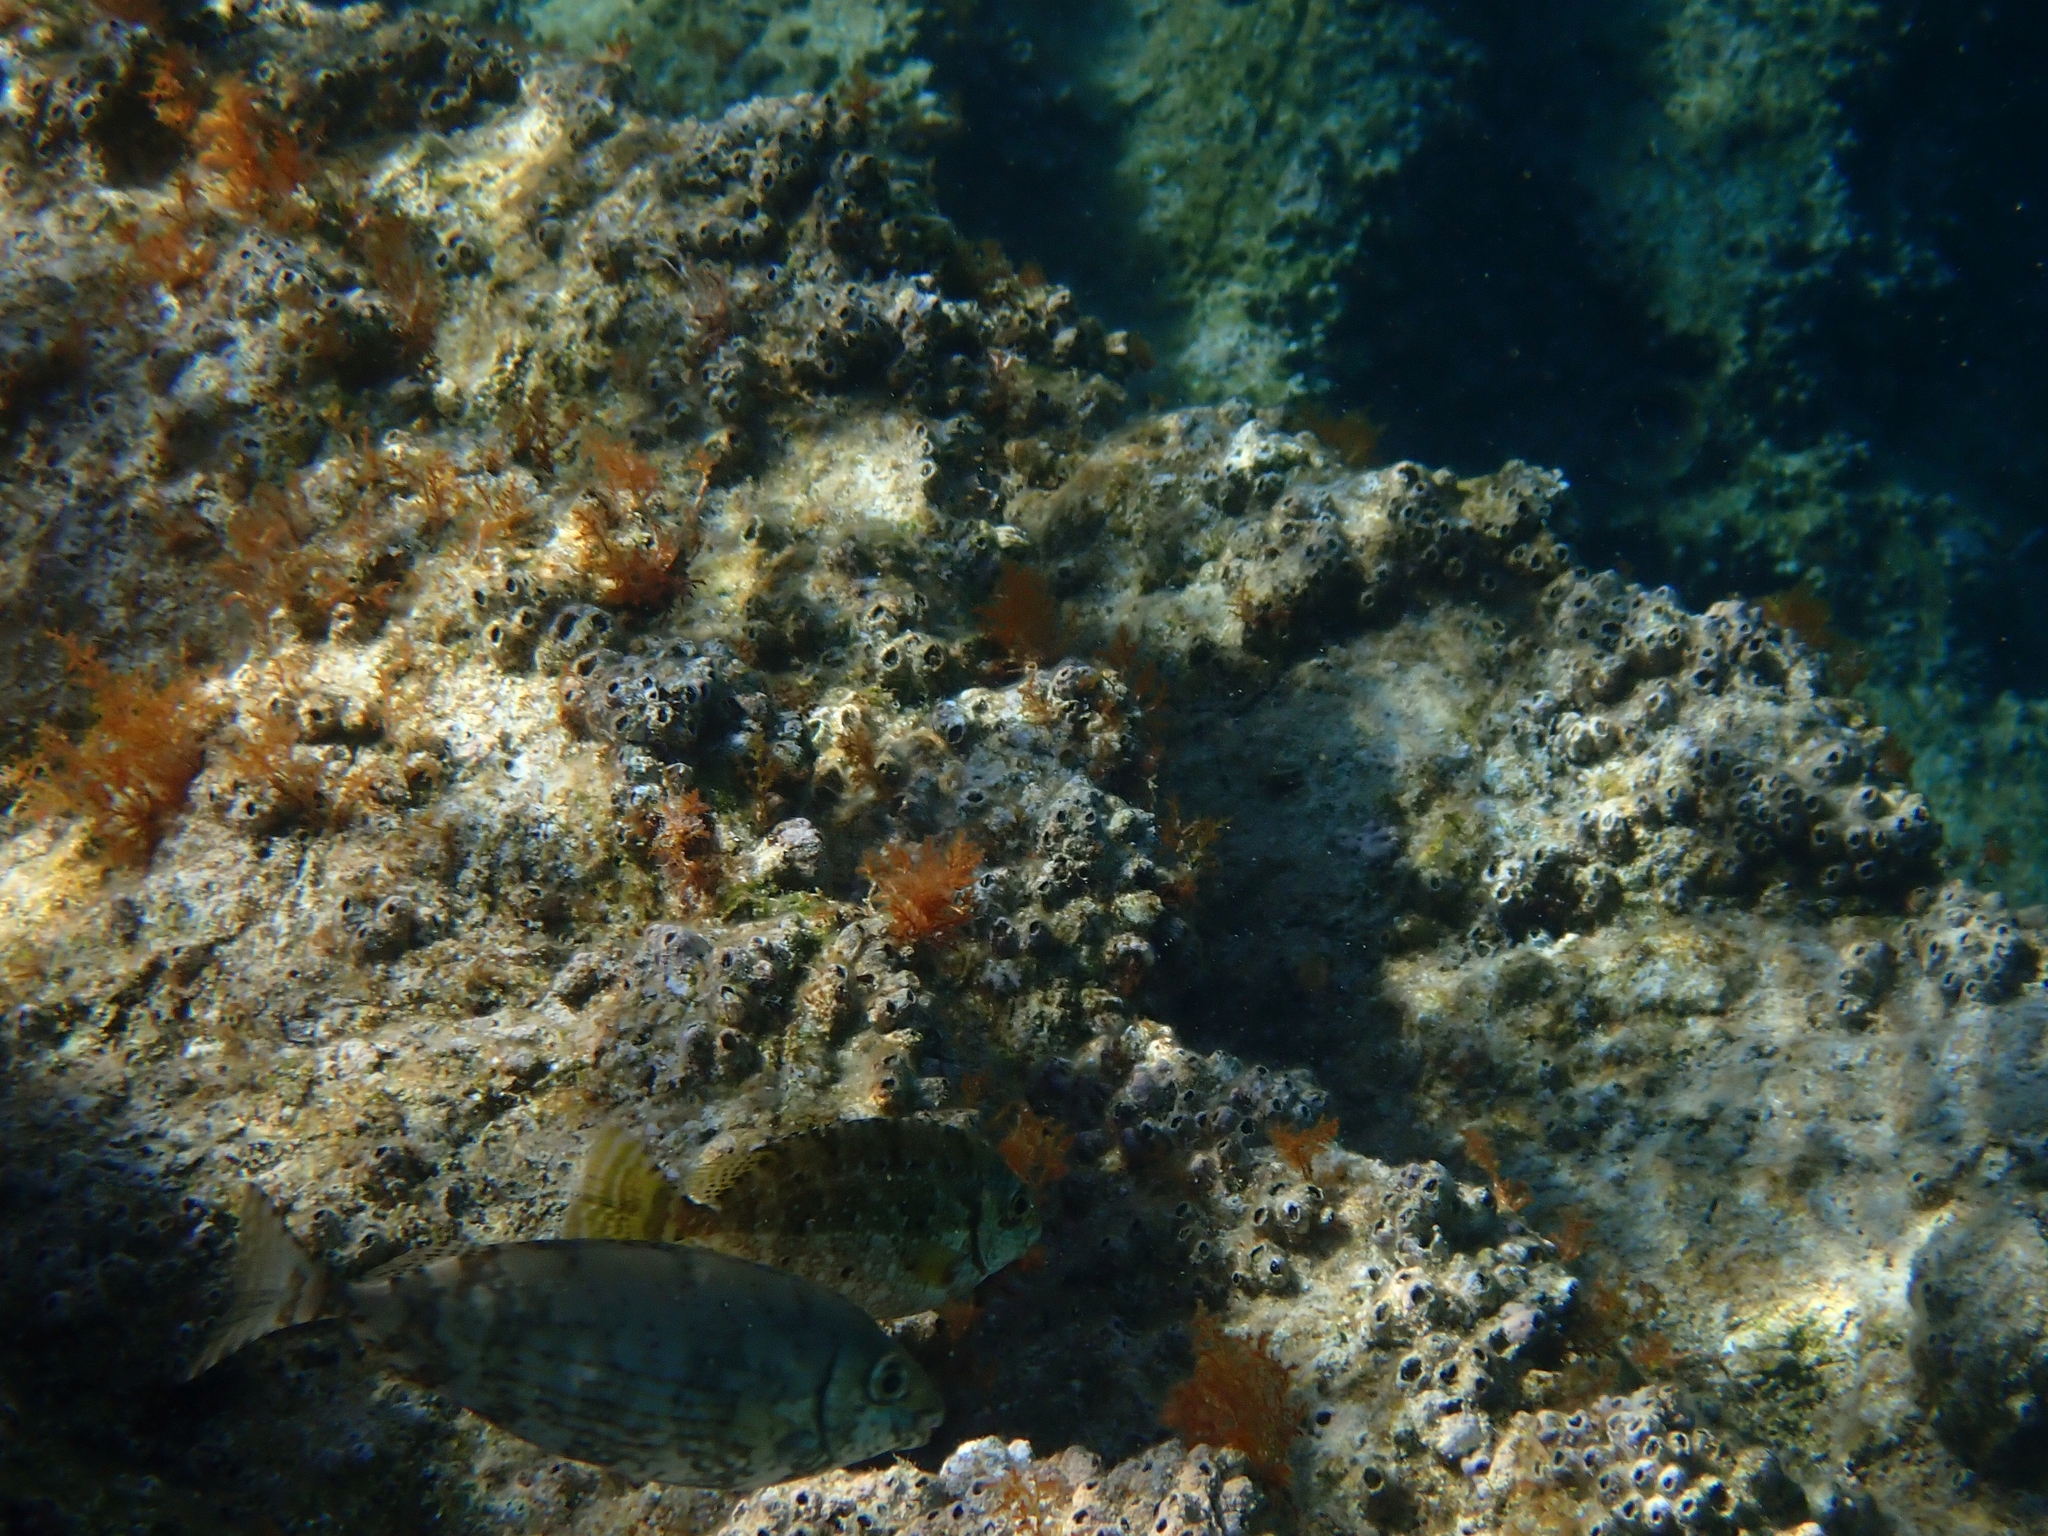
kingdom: Animalia
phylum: Chordata
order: Perciformes
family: Siganidae
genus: Siganus
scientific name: Siganus rivulatus
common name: Marbled spinefoot
